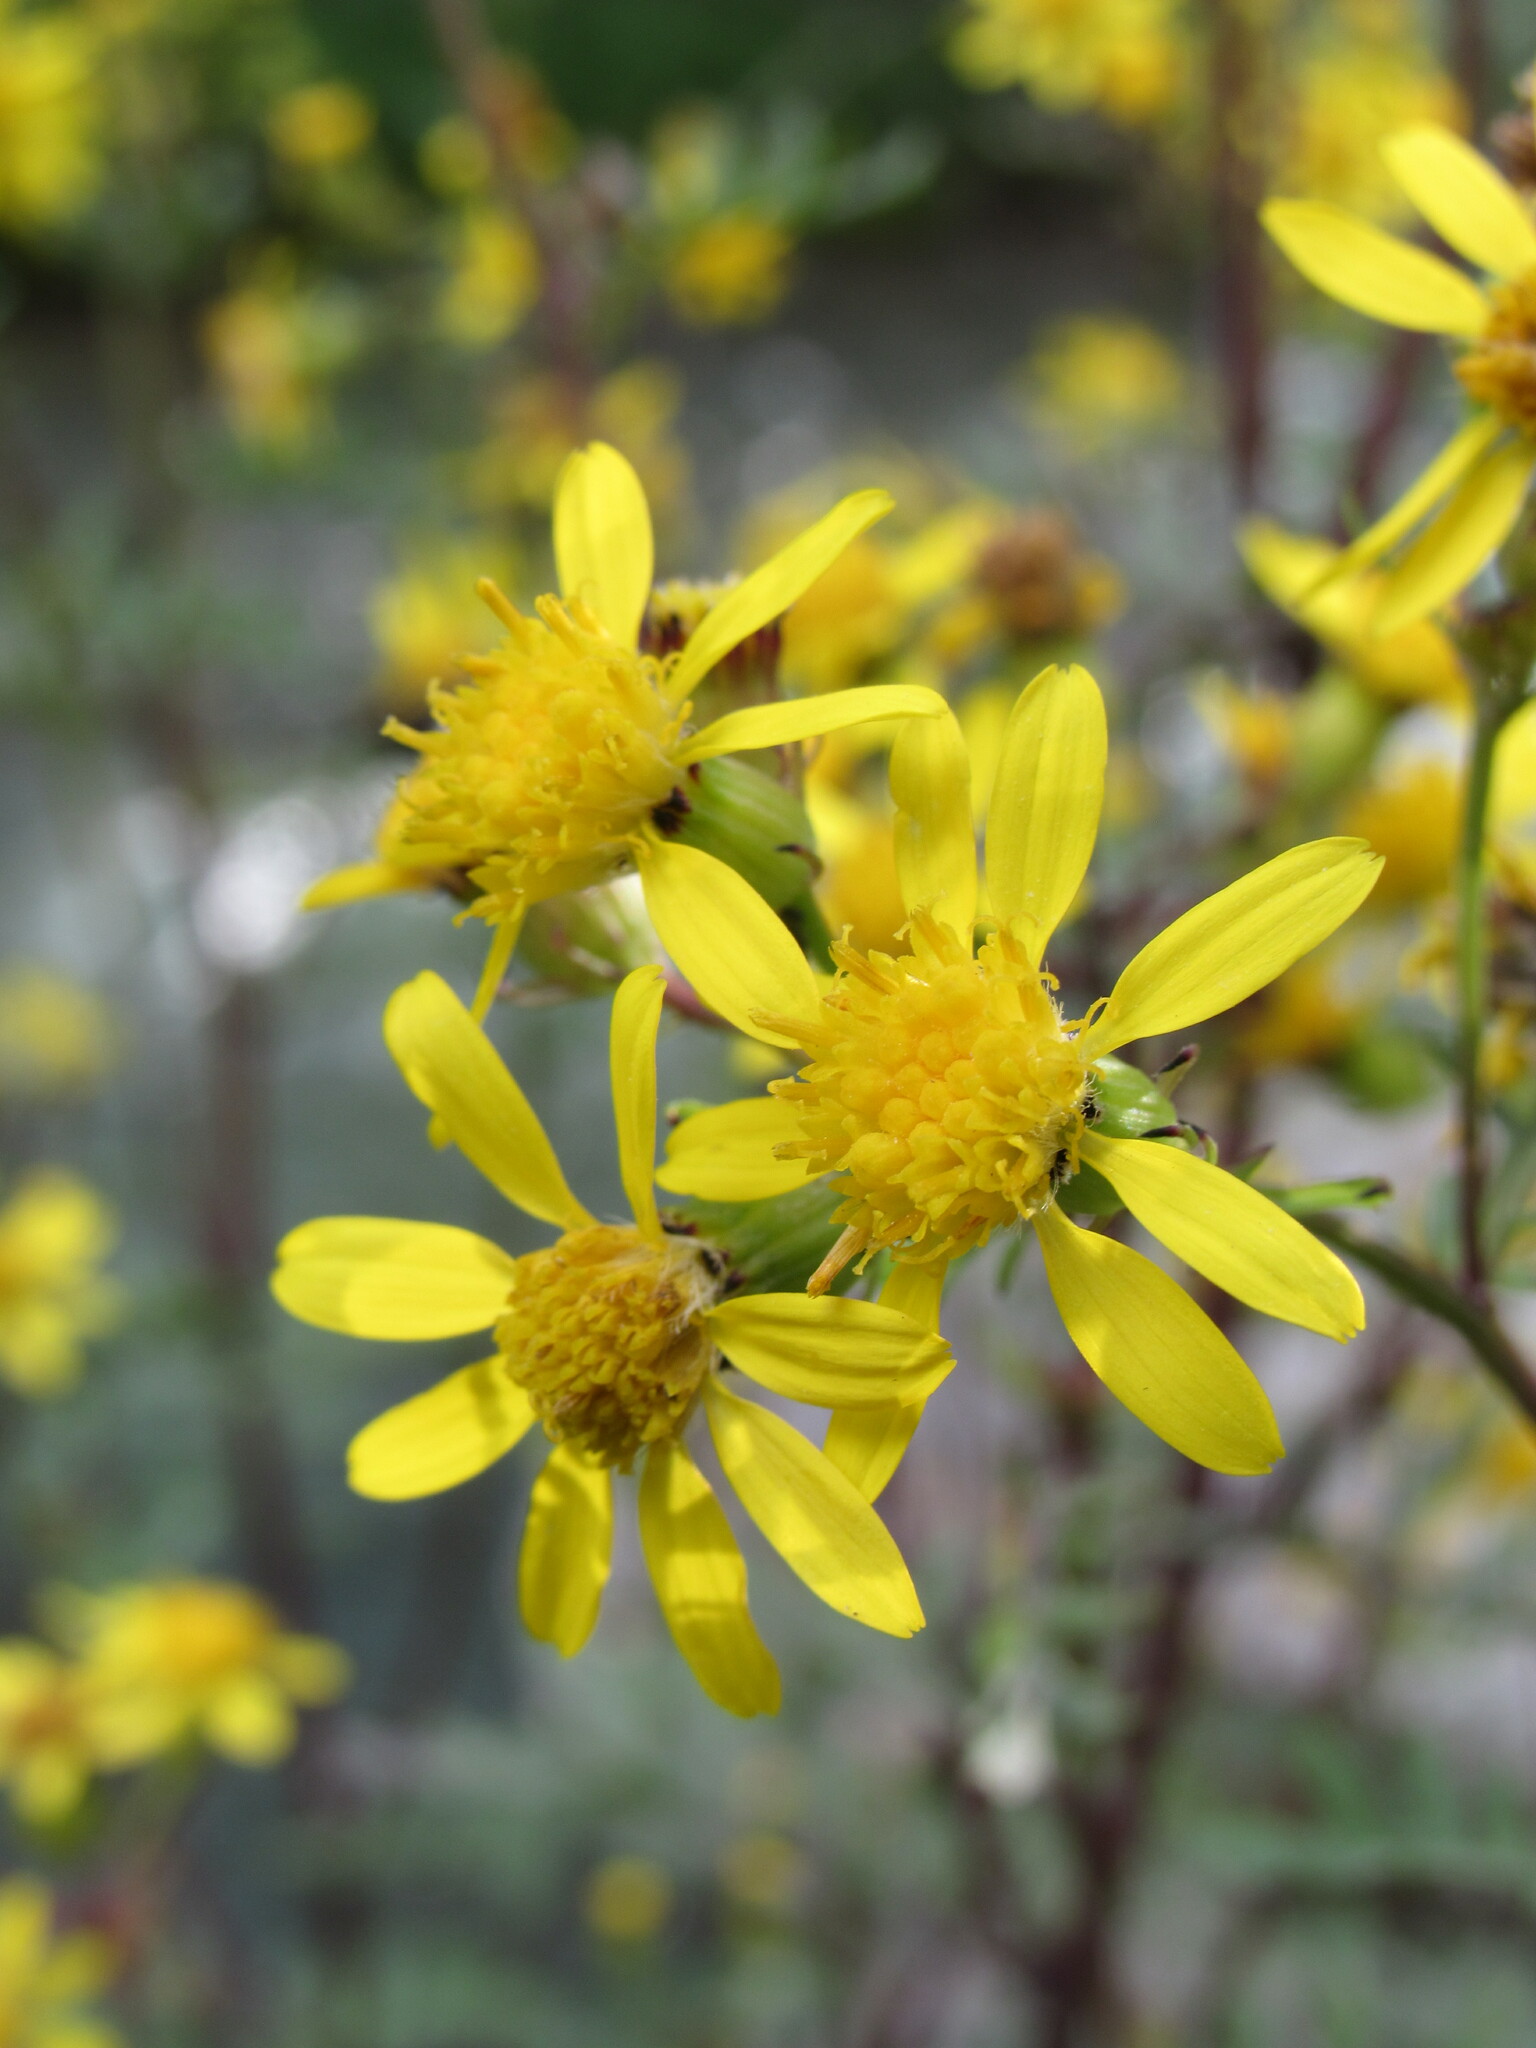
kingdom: Plantae
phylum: Tracheophyta
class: Magnoliopsida
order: Asterales
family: Asteraceae
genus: Senecio
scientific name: Senecio eremophilus
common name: Desert ragwort
